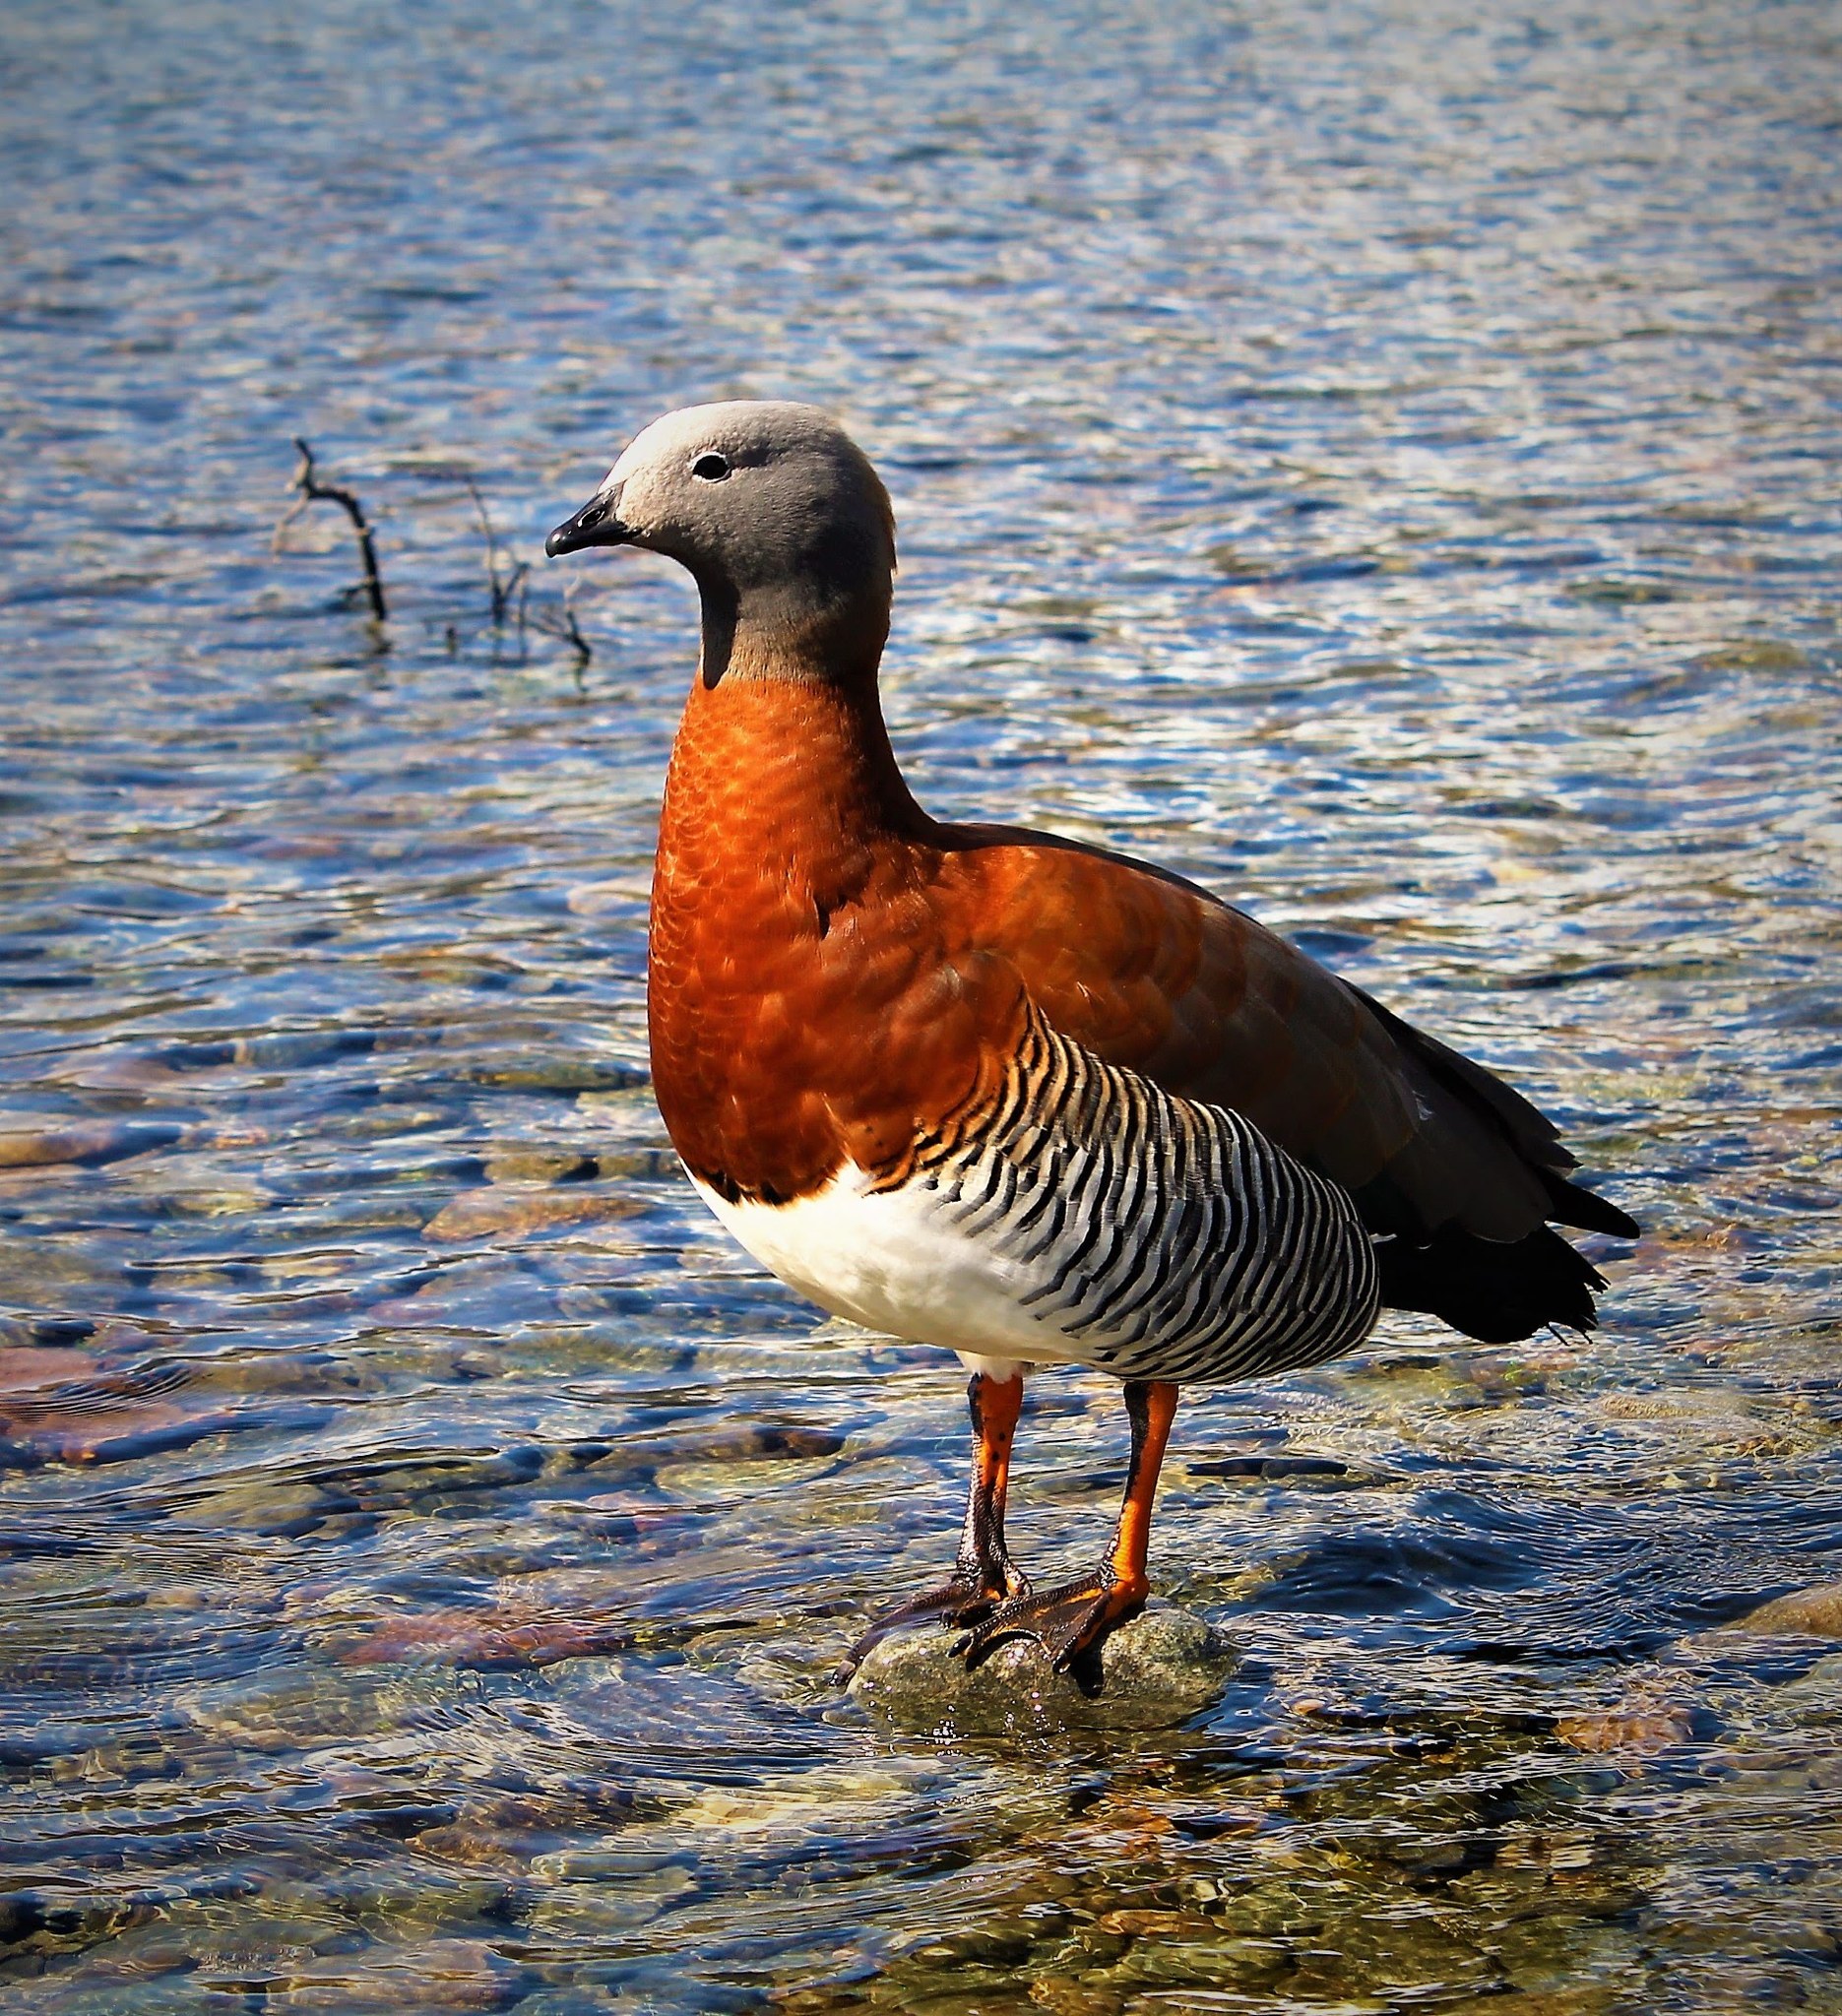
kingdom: Animalia
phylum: Chordata
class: Aves
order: Anseriformes
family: Anatidae
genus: Chloephaga
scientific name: Chloephaga poliocephala
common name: Ashy-headed goose
